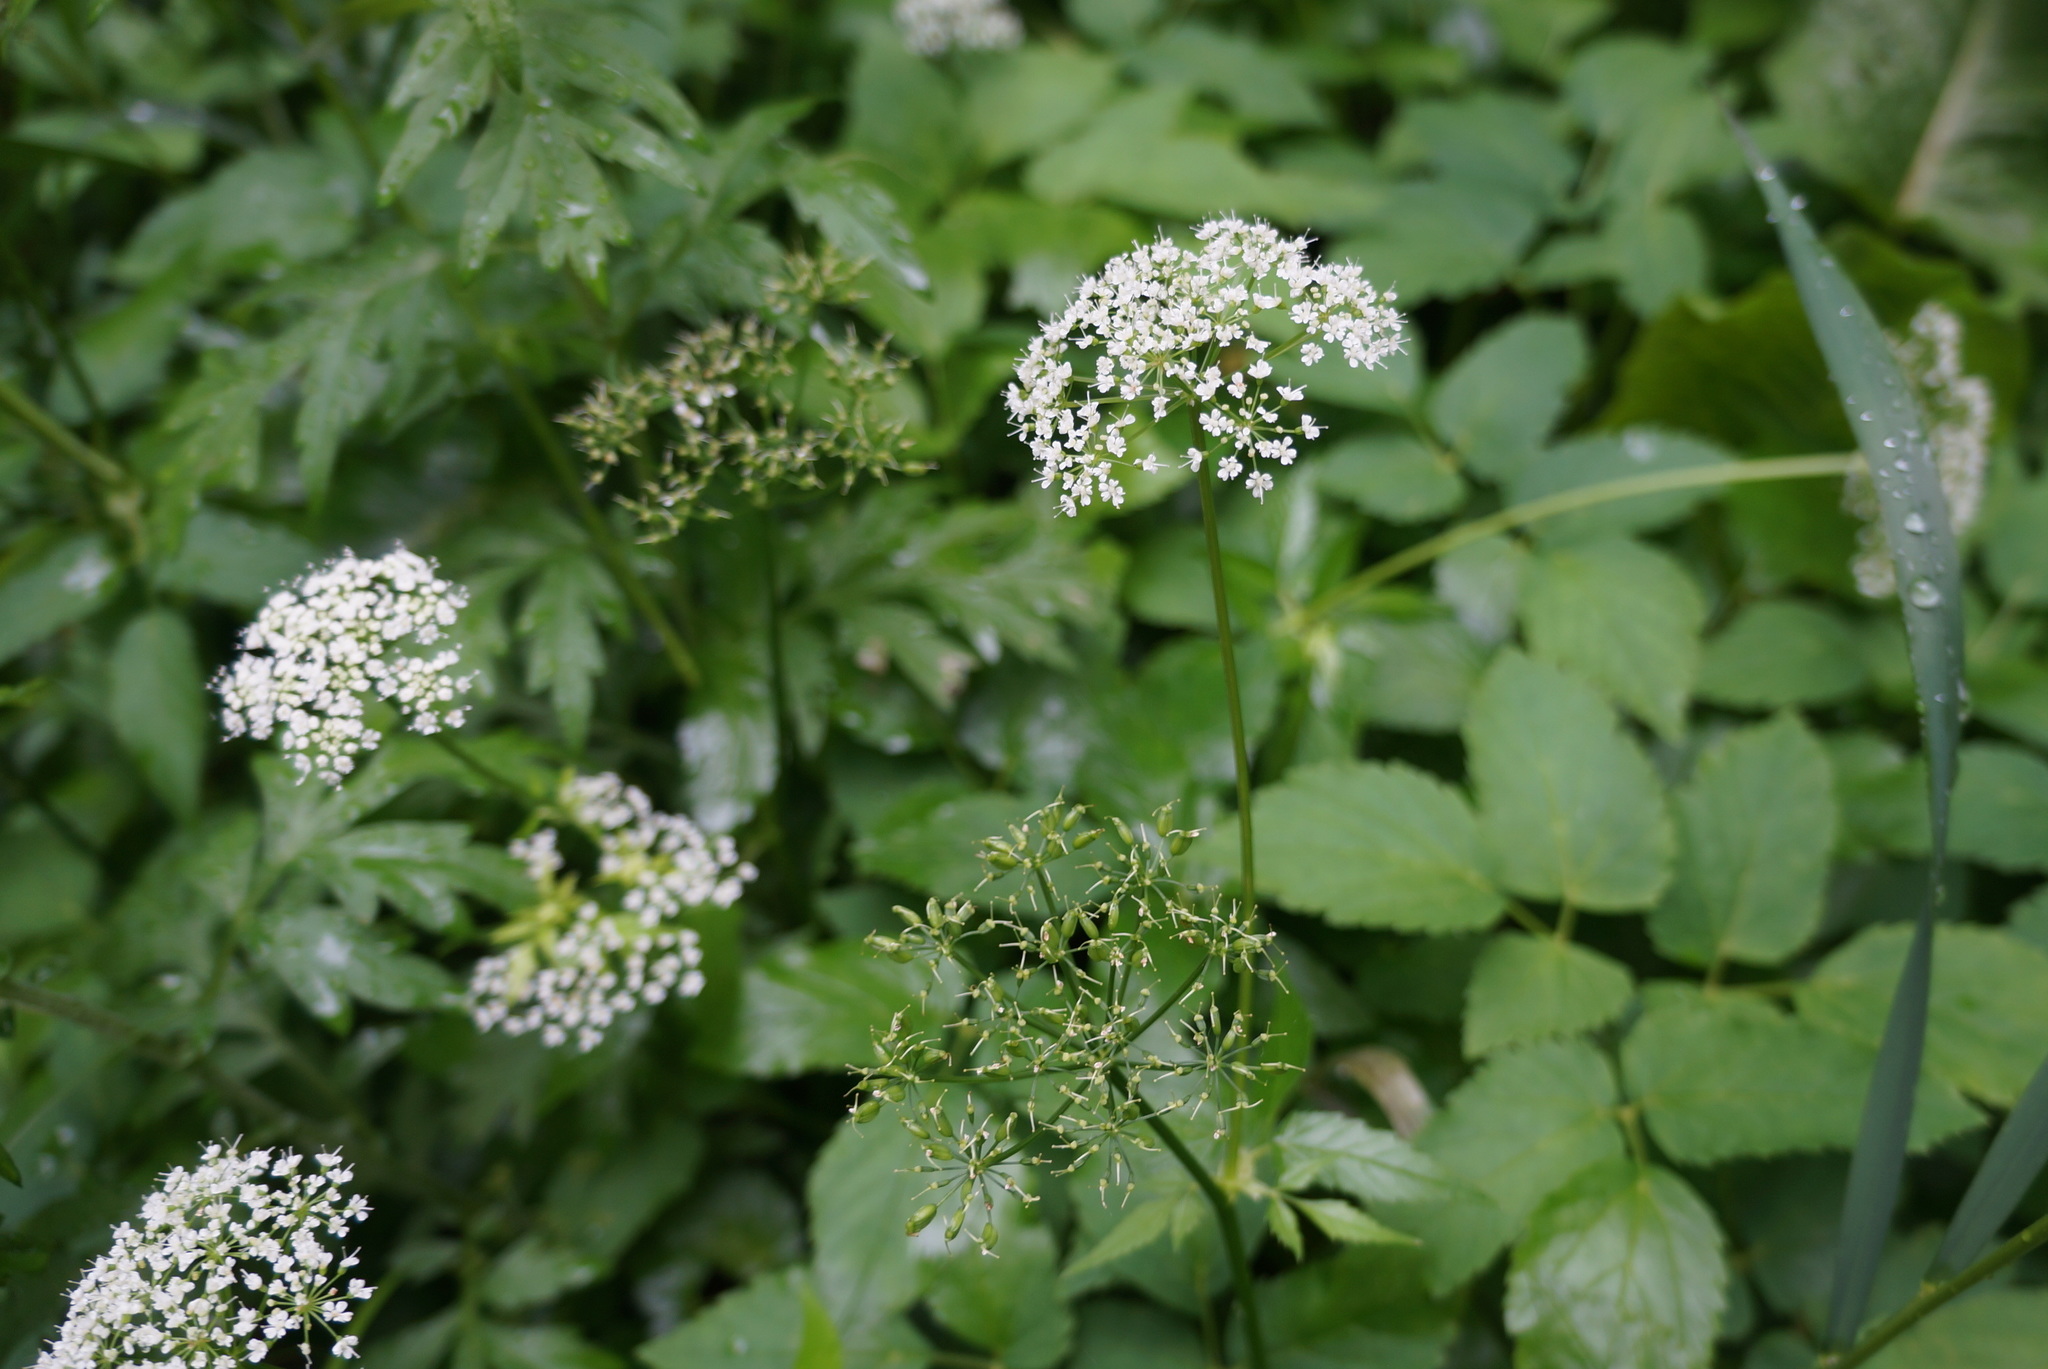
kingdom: Plantae
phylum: Tracheophyta
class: Magnoliopsida
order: Apiales
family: Apiaceae
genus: Aegopodium
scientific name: Aegopodium podagraria
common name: Ground-elder
